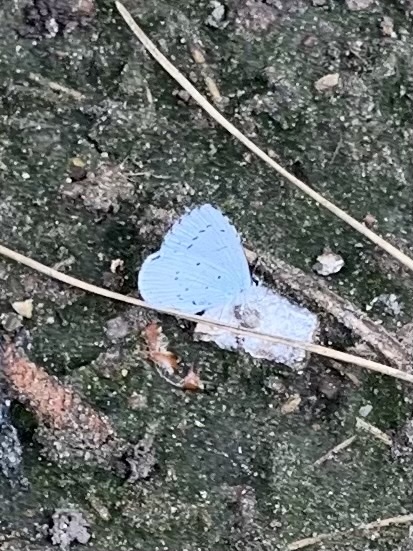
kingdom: Animalia
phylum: Arthropoda
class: Insecta
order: Lepidoptera
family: Lycaenidae
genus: Celastrina
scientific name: Celastrina argiolus
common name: Holly blue
